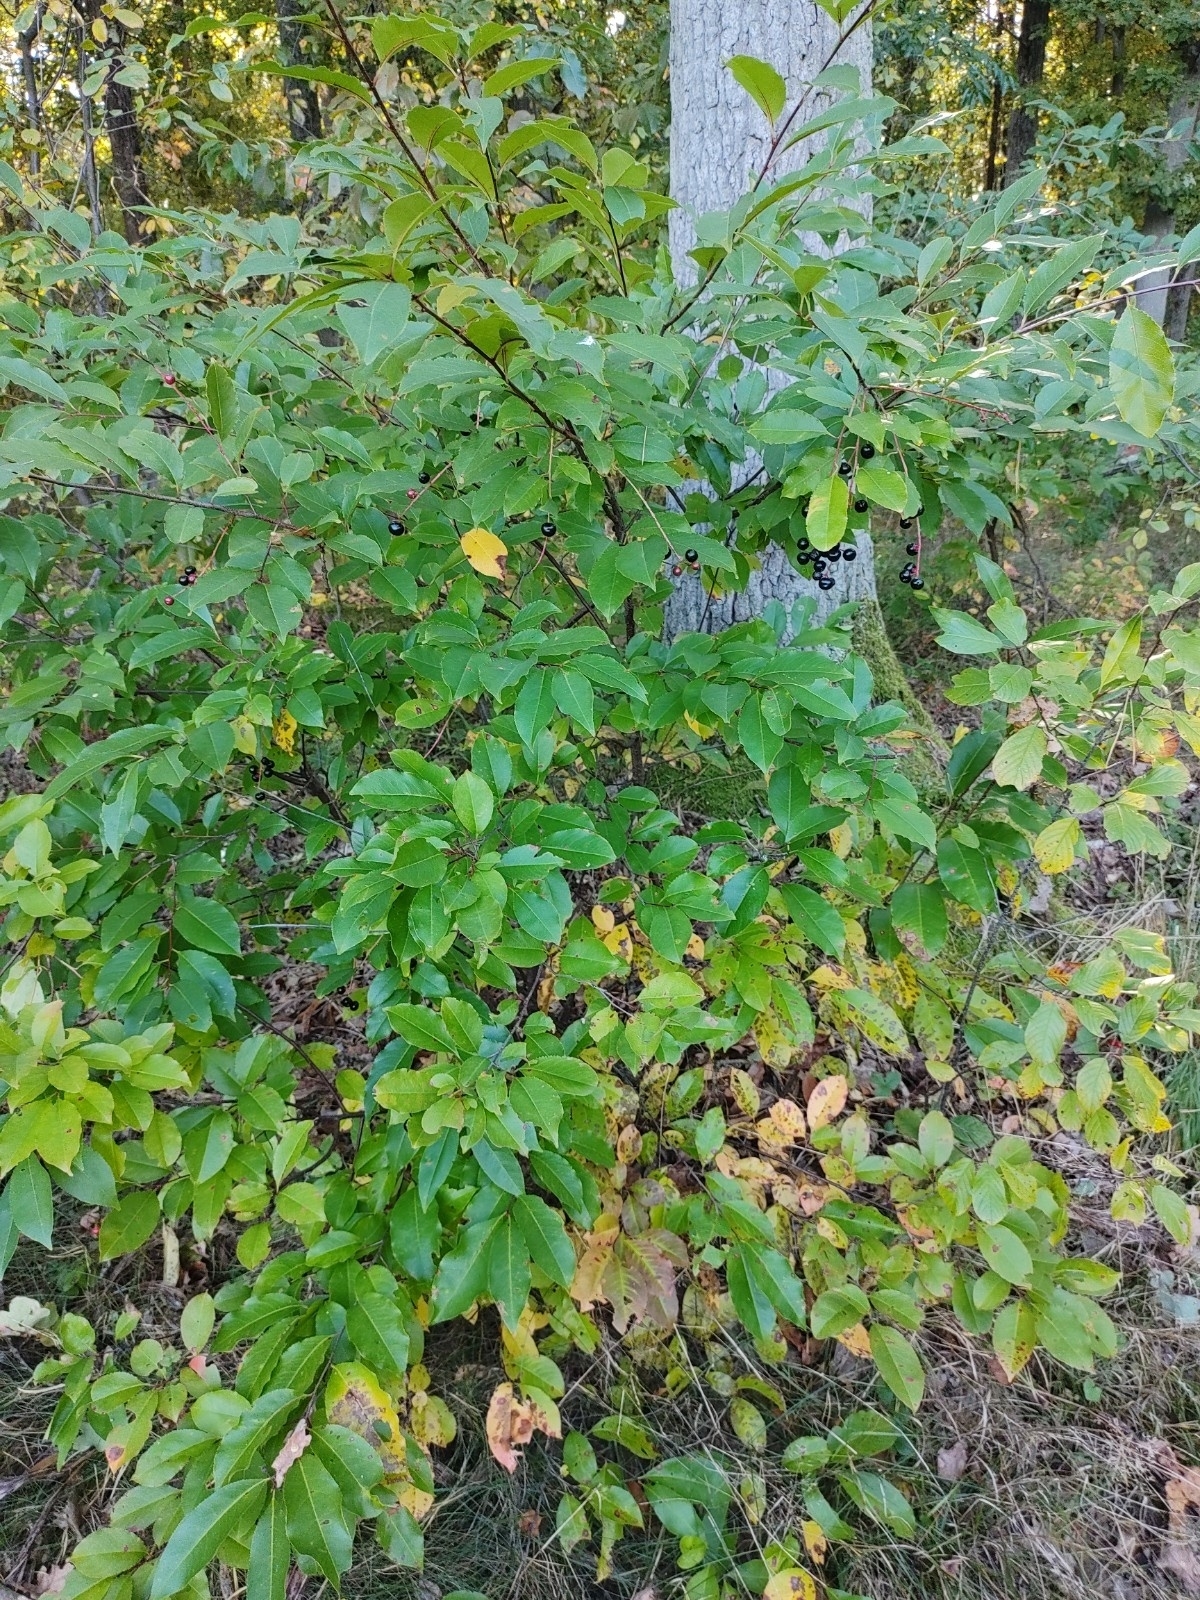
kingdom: Plantae
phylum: Tracheophyta
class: Magnoliopsida
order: Rosales
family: Rosaceae
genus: Prunus
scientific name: Prunus serotina
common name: Black cherry
